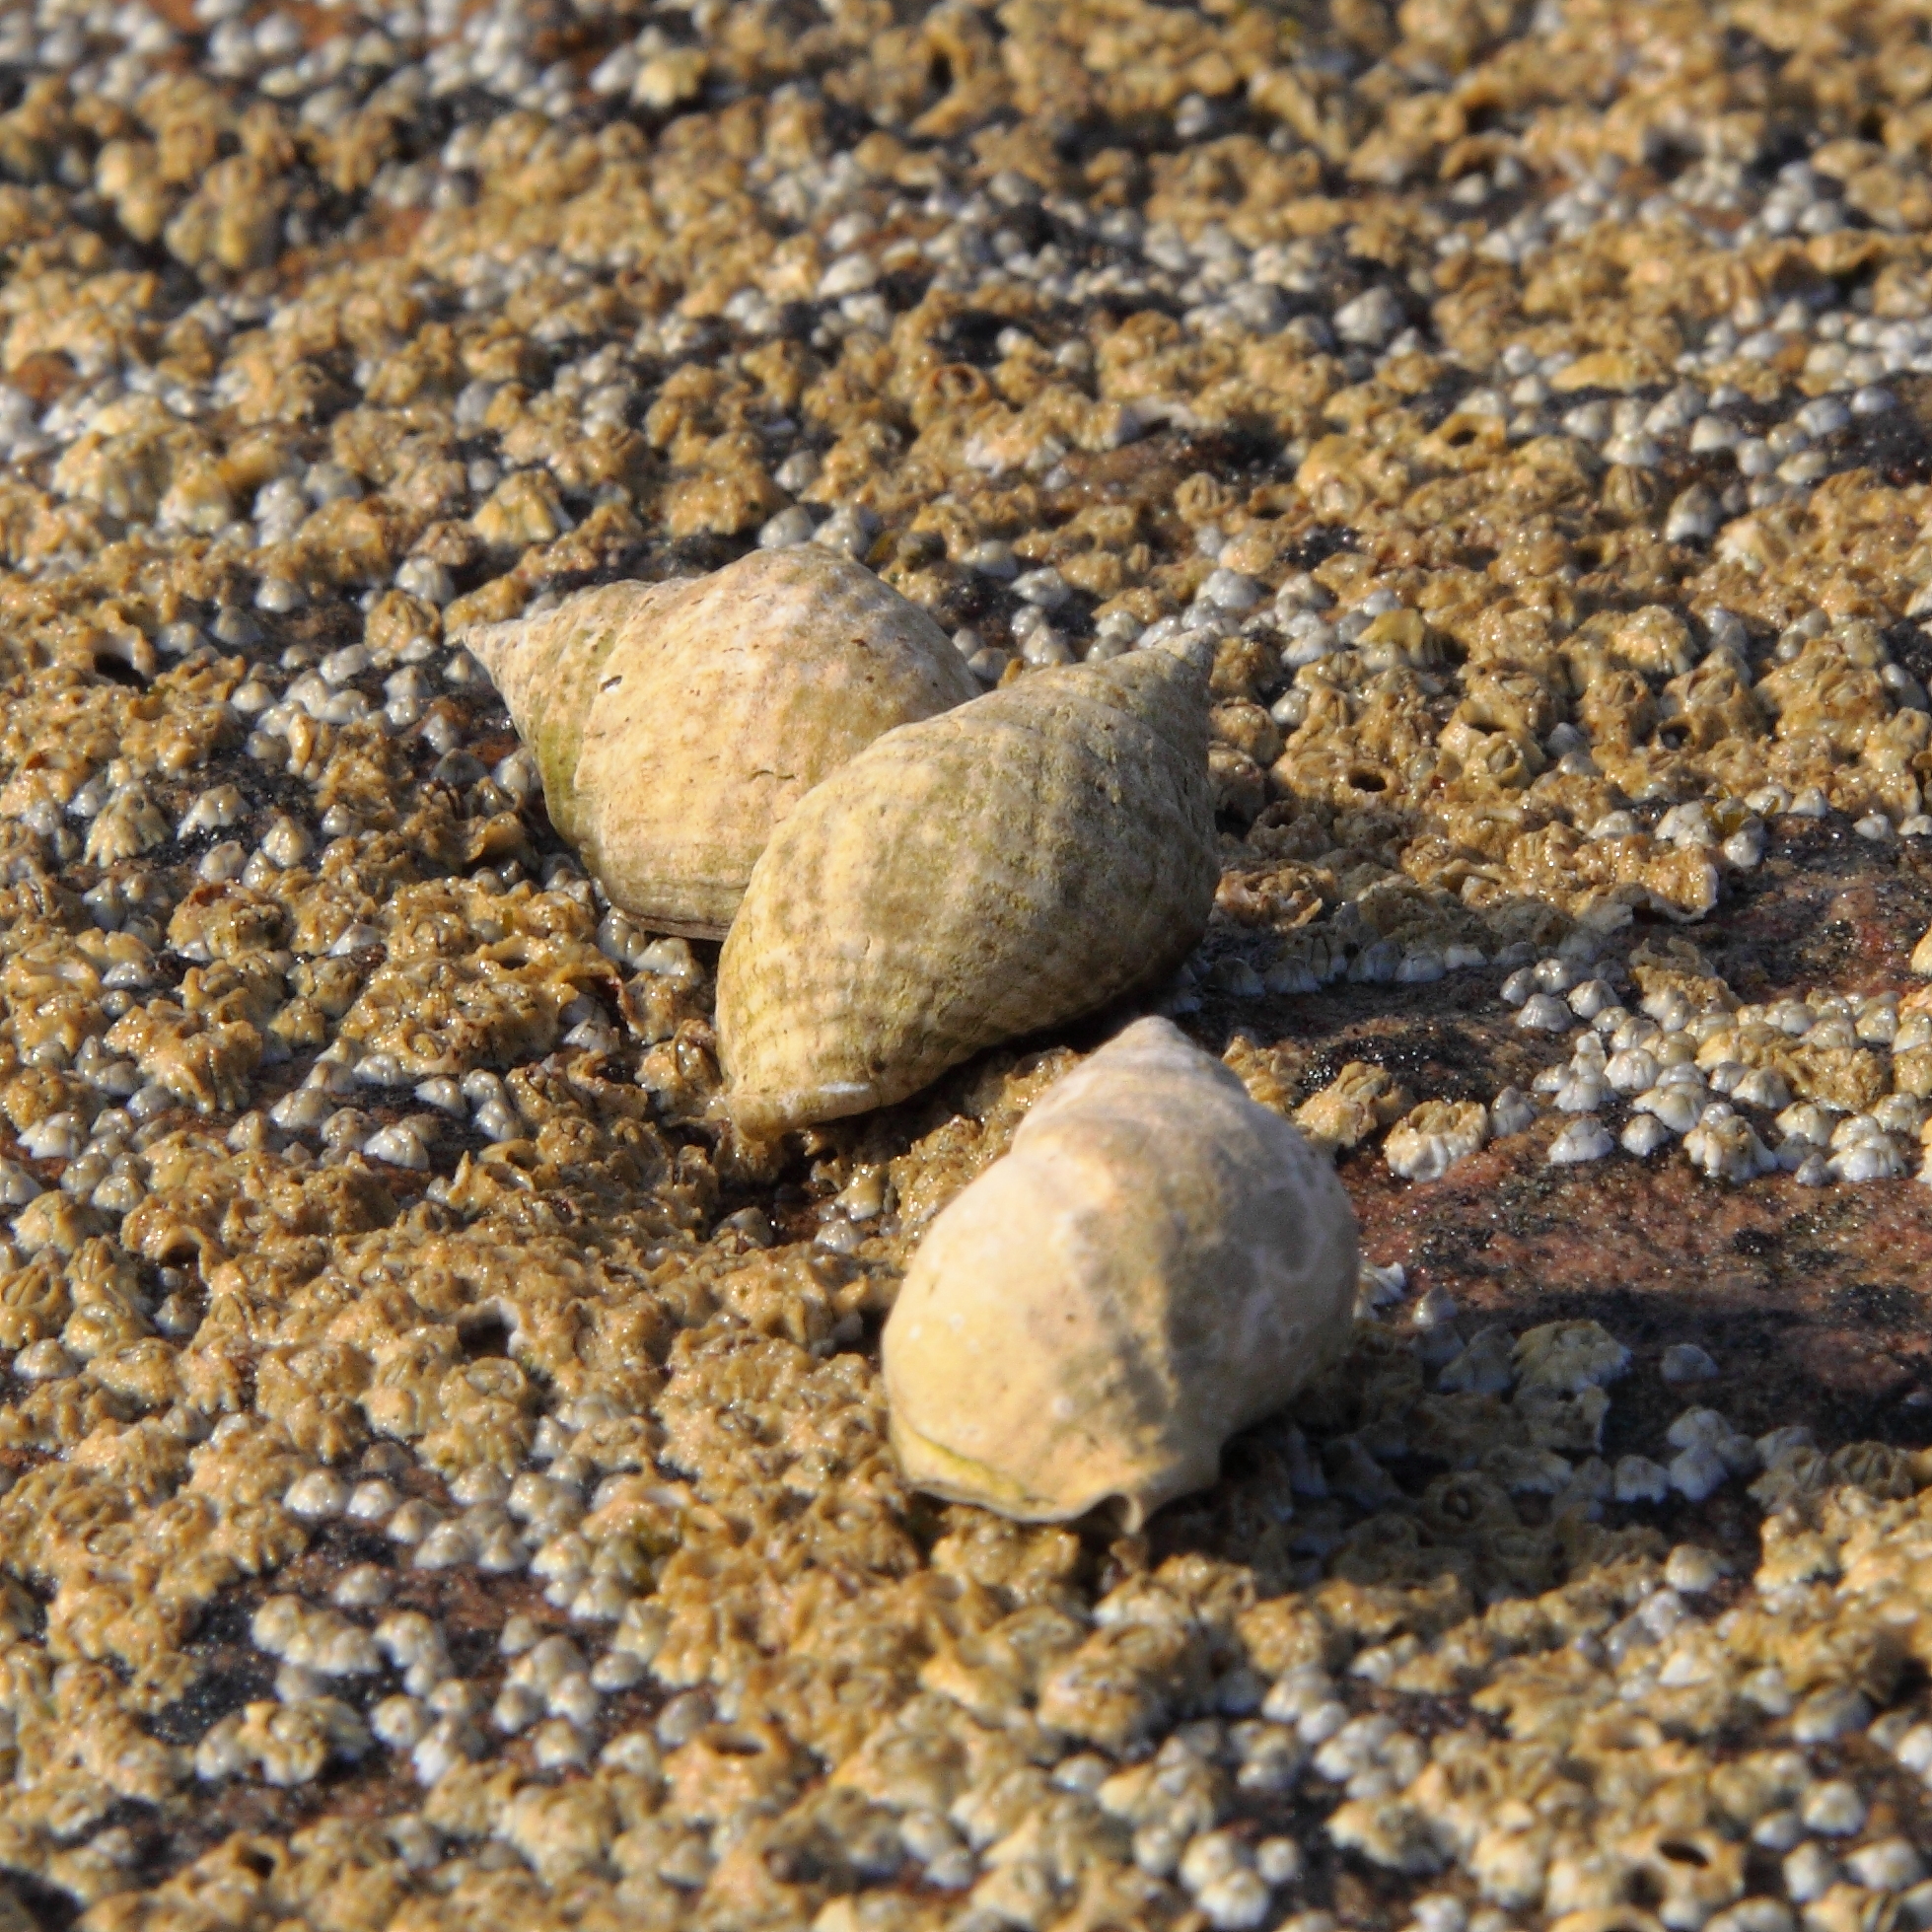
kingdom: Animalia
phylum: Mollusca
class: Gastropoda
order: Neogastropoda
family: Muricidae
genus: Nucella
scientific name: Nucella lapillus
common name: Dog whelk
